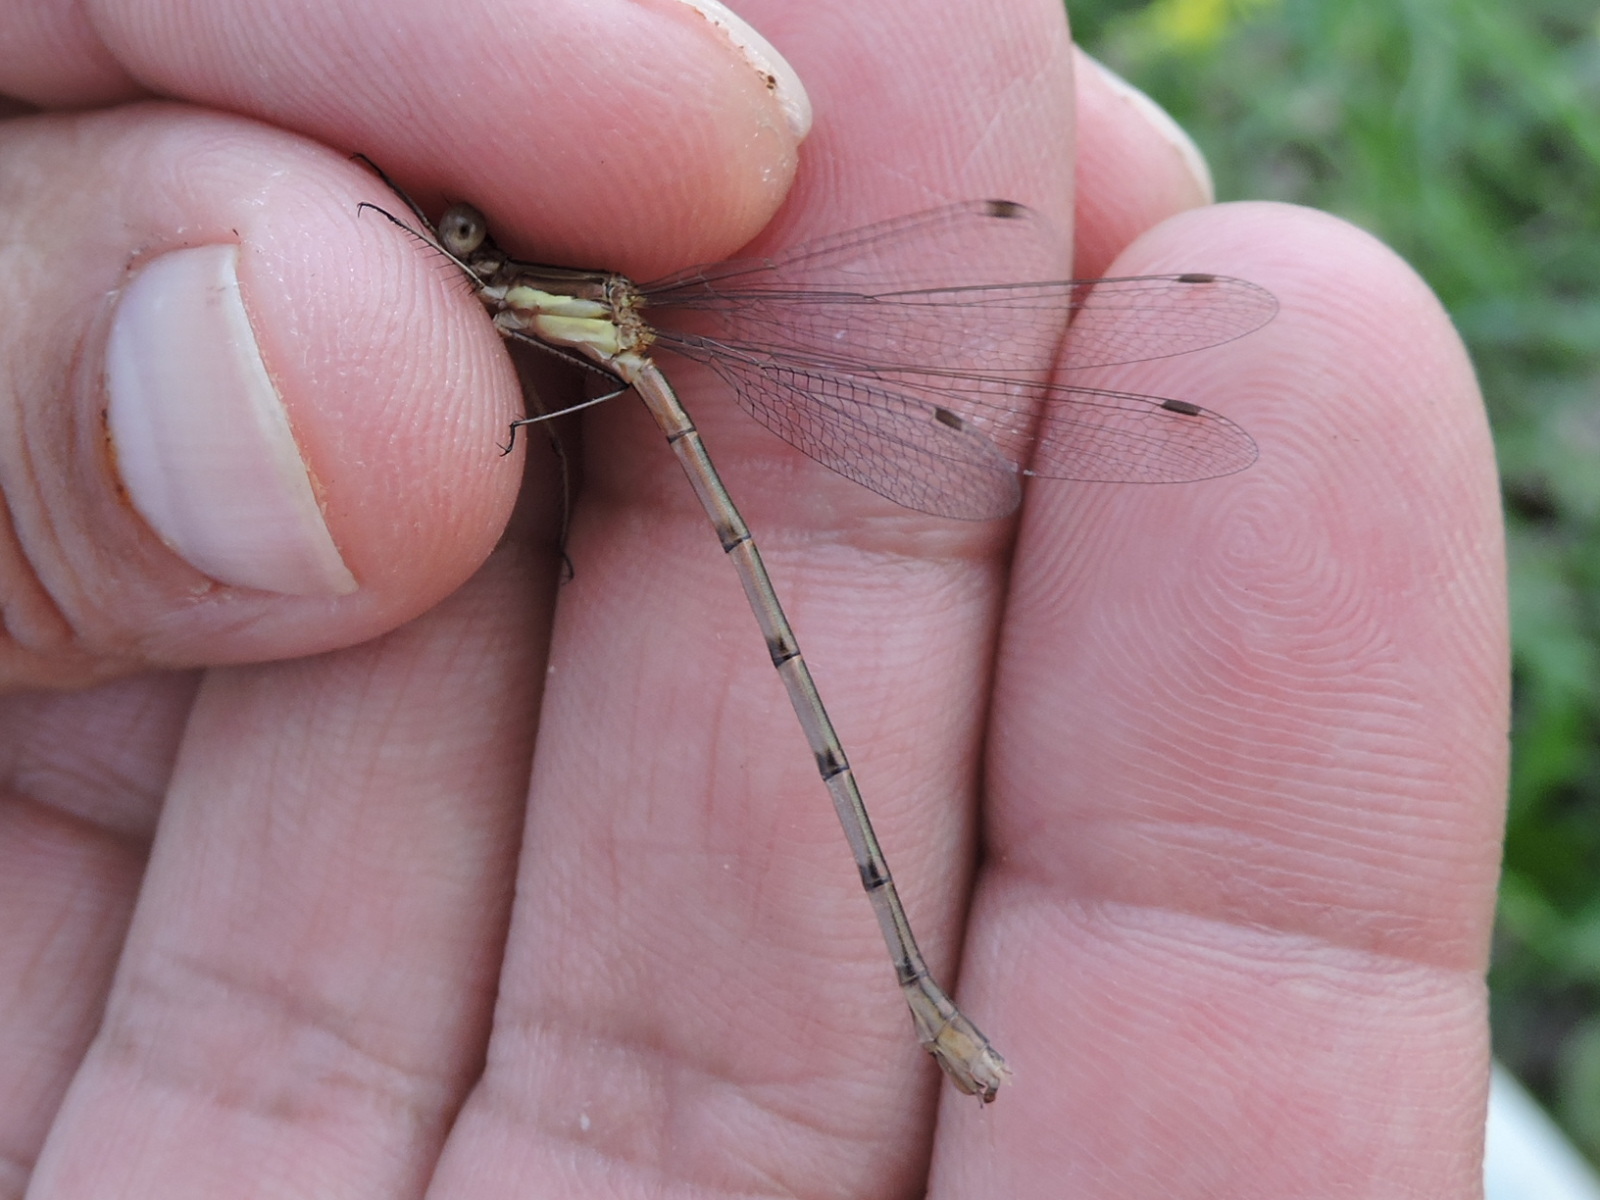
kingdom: Animalia
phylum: Arthropoda
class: Insecta
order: Odonata
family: Lestidae
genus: Lestes
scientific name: Lestes australis
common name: Southern spreadwing
